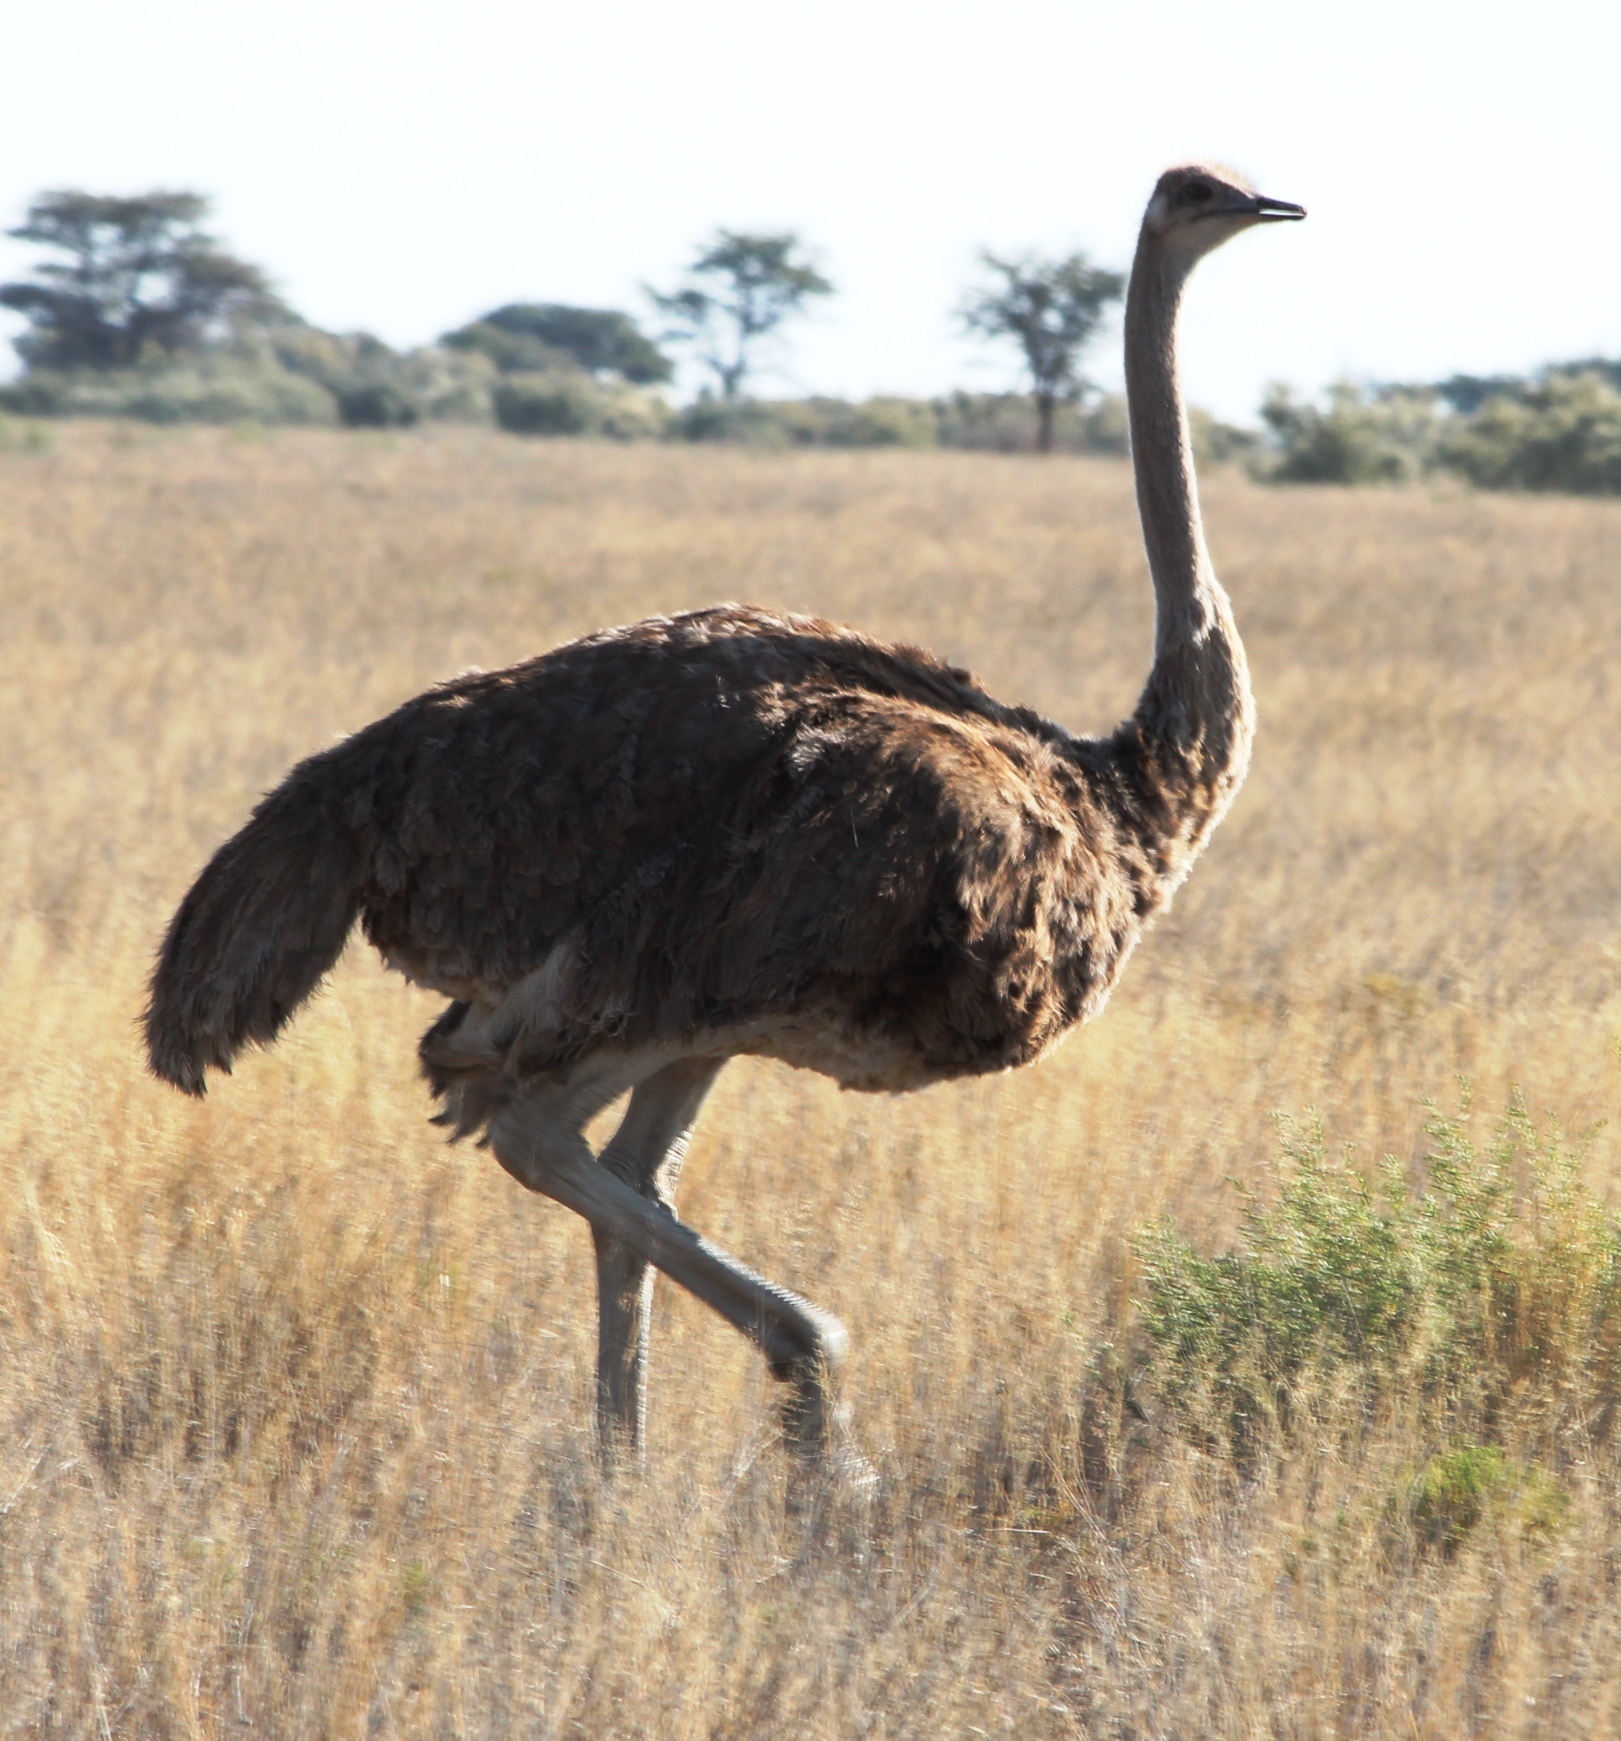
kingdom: Animalia
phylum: Chordata
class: Aves
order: Struthioniformes
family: Struthionidae
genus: Struthio
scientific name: Struthio camelus
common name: Common ostrich
